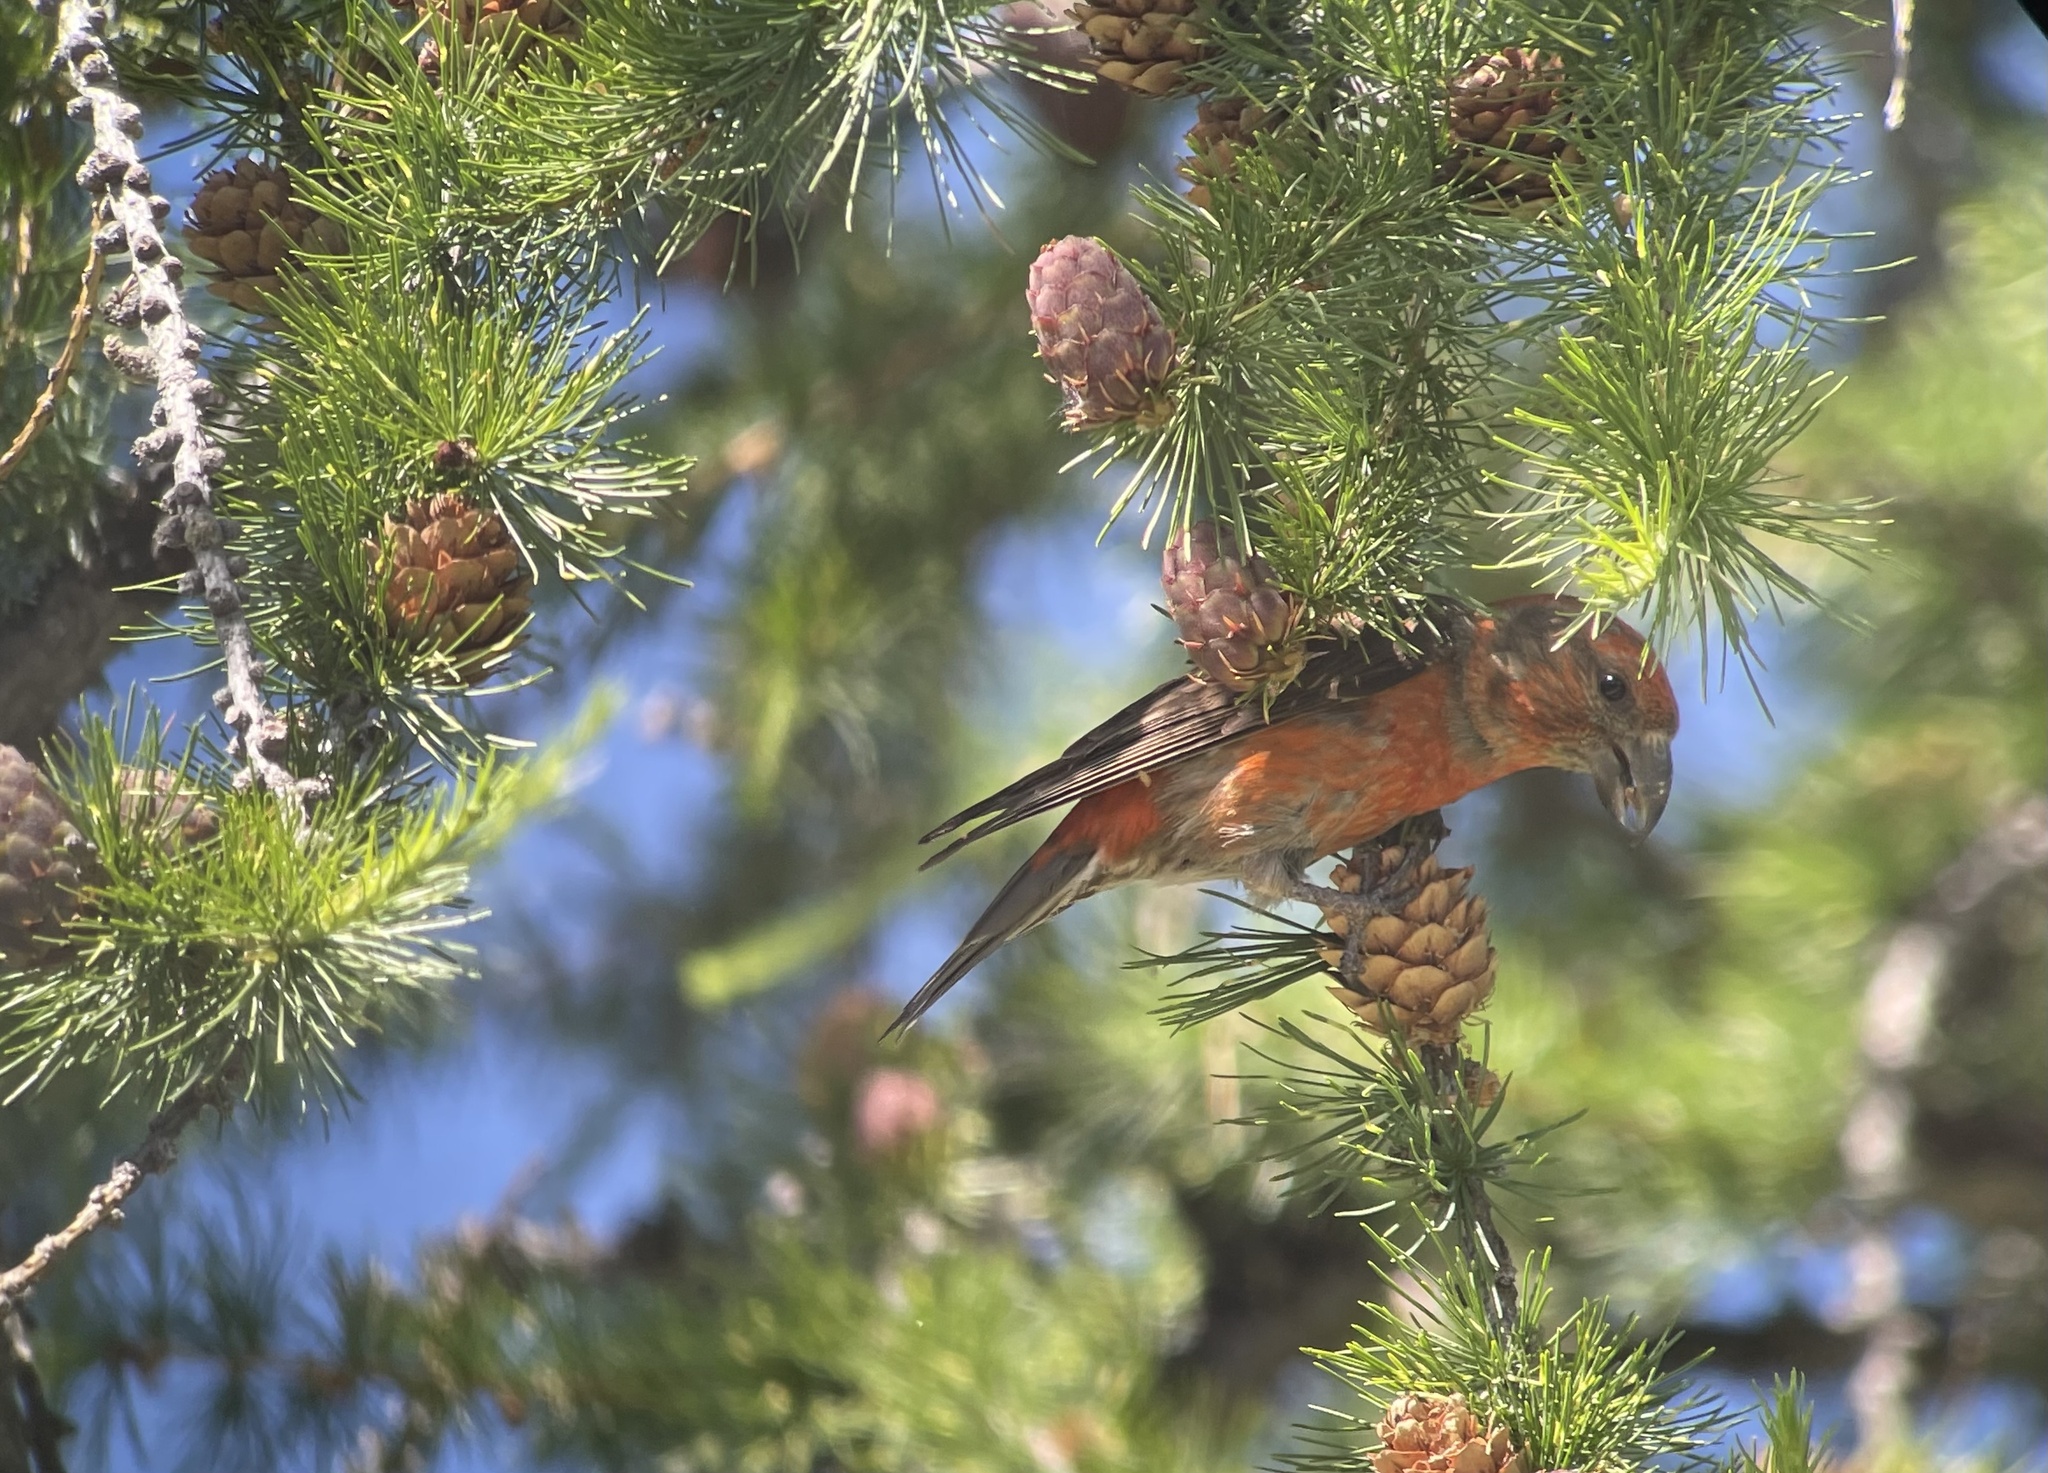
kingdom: Animalia
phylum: Chordata
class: Aves
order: Passeriformes
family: Fringillidae
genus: Loxia
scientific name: Loxia curvirostra
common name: Red crossbill
